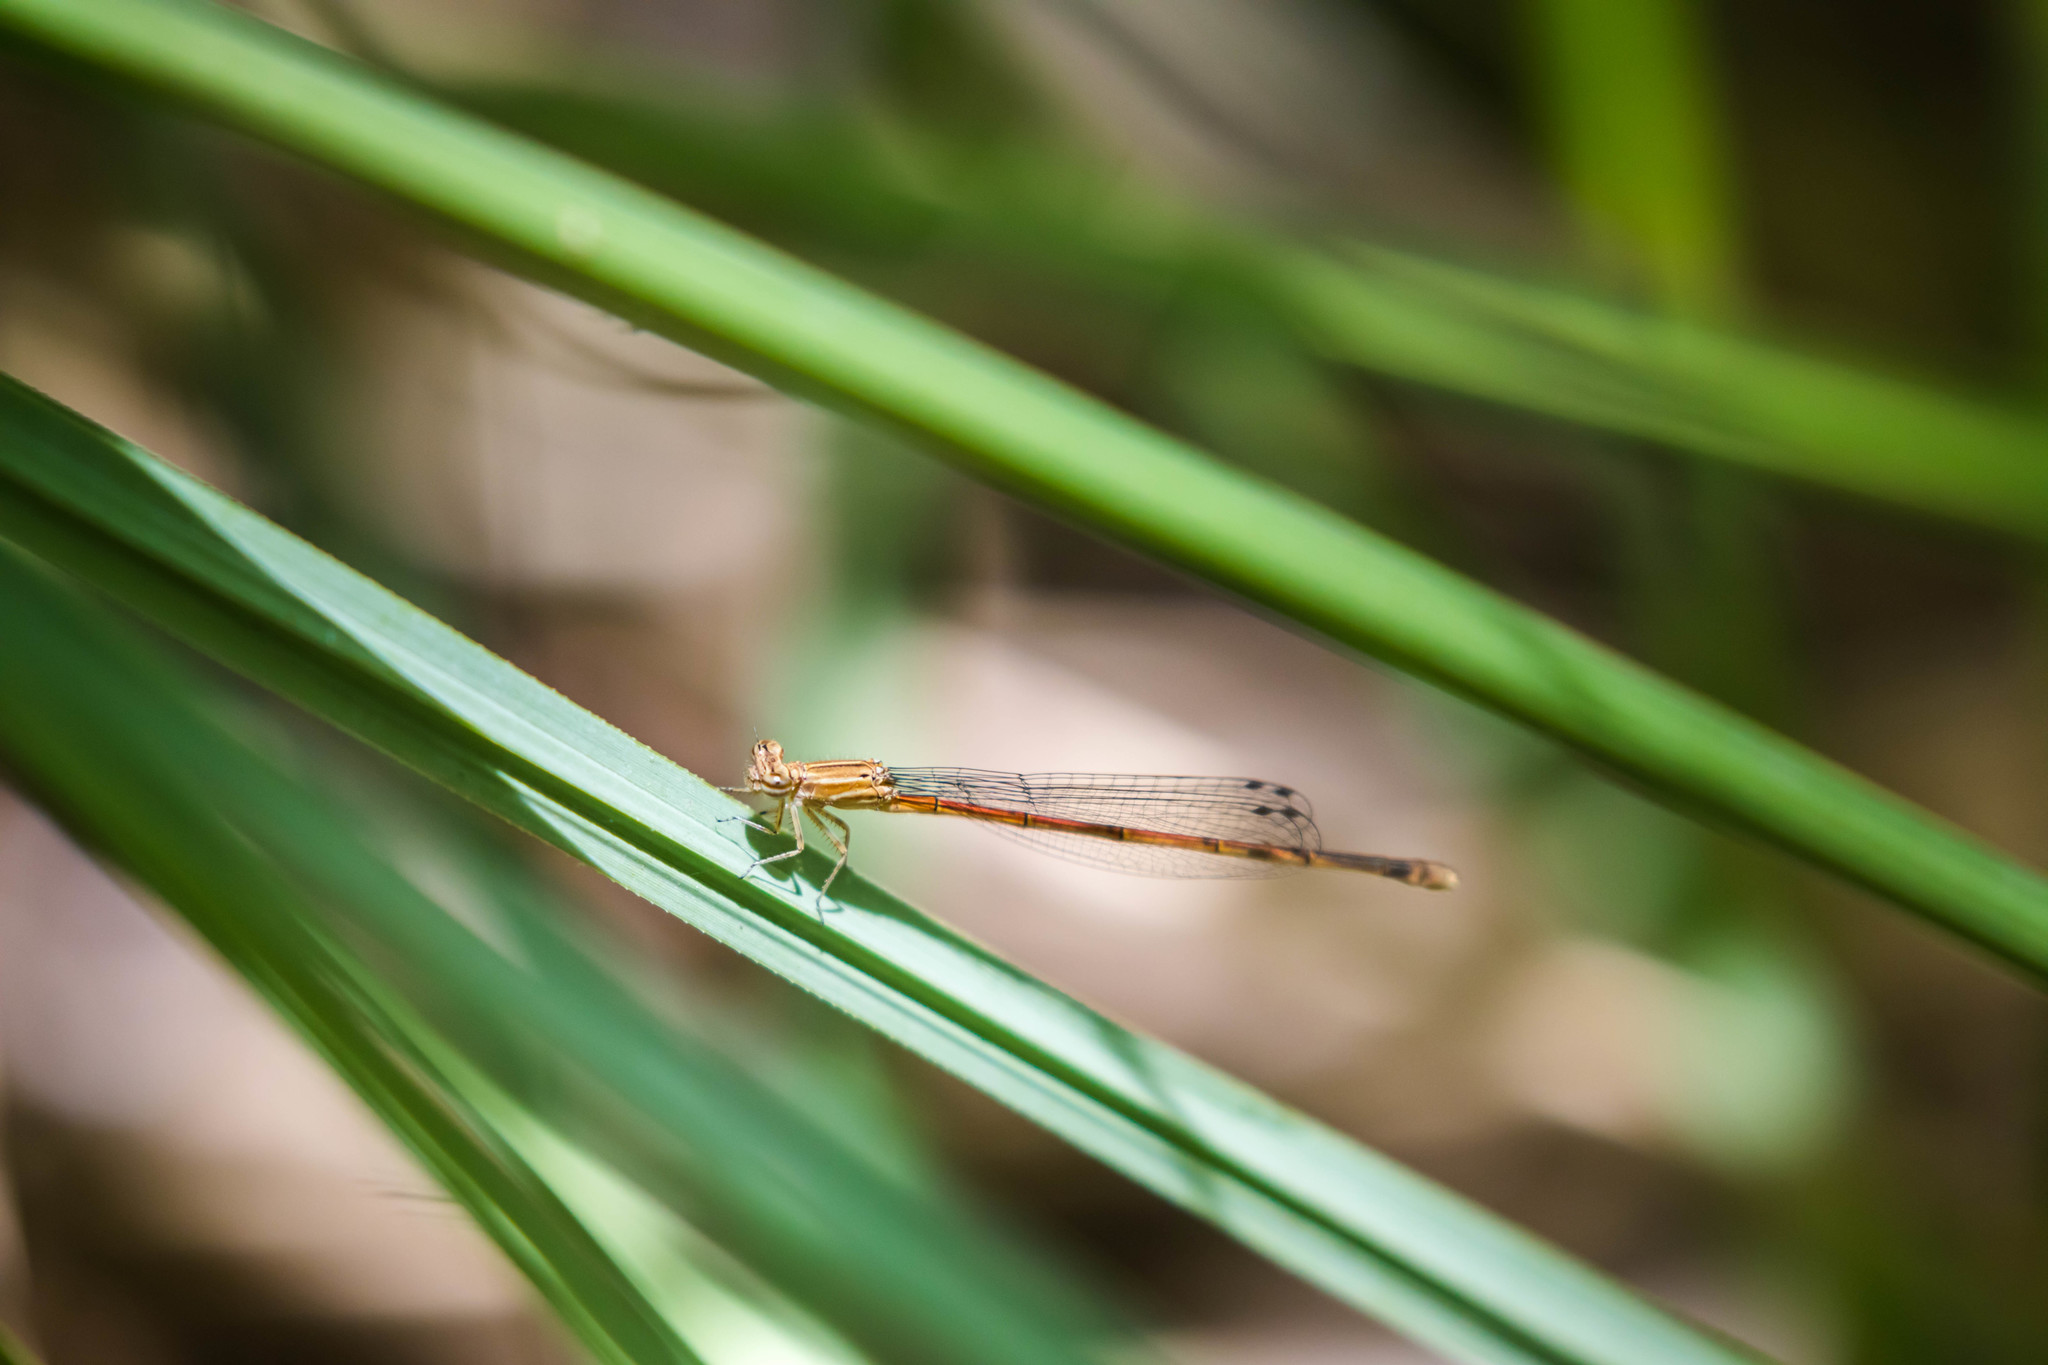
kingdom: Animalia
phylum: Arthropoda
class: Insecta
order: Odonata
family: Coenagrionidae
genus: Apanisagrion
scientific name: Apanisagrion lais
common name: Black-and-white damsel
